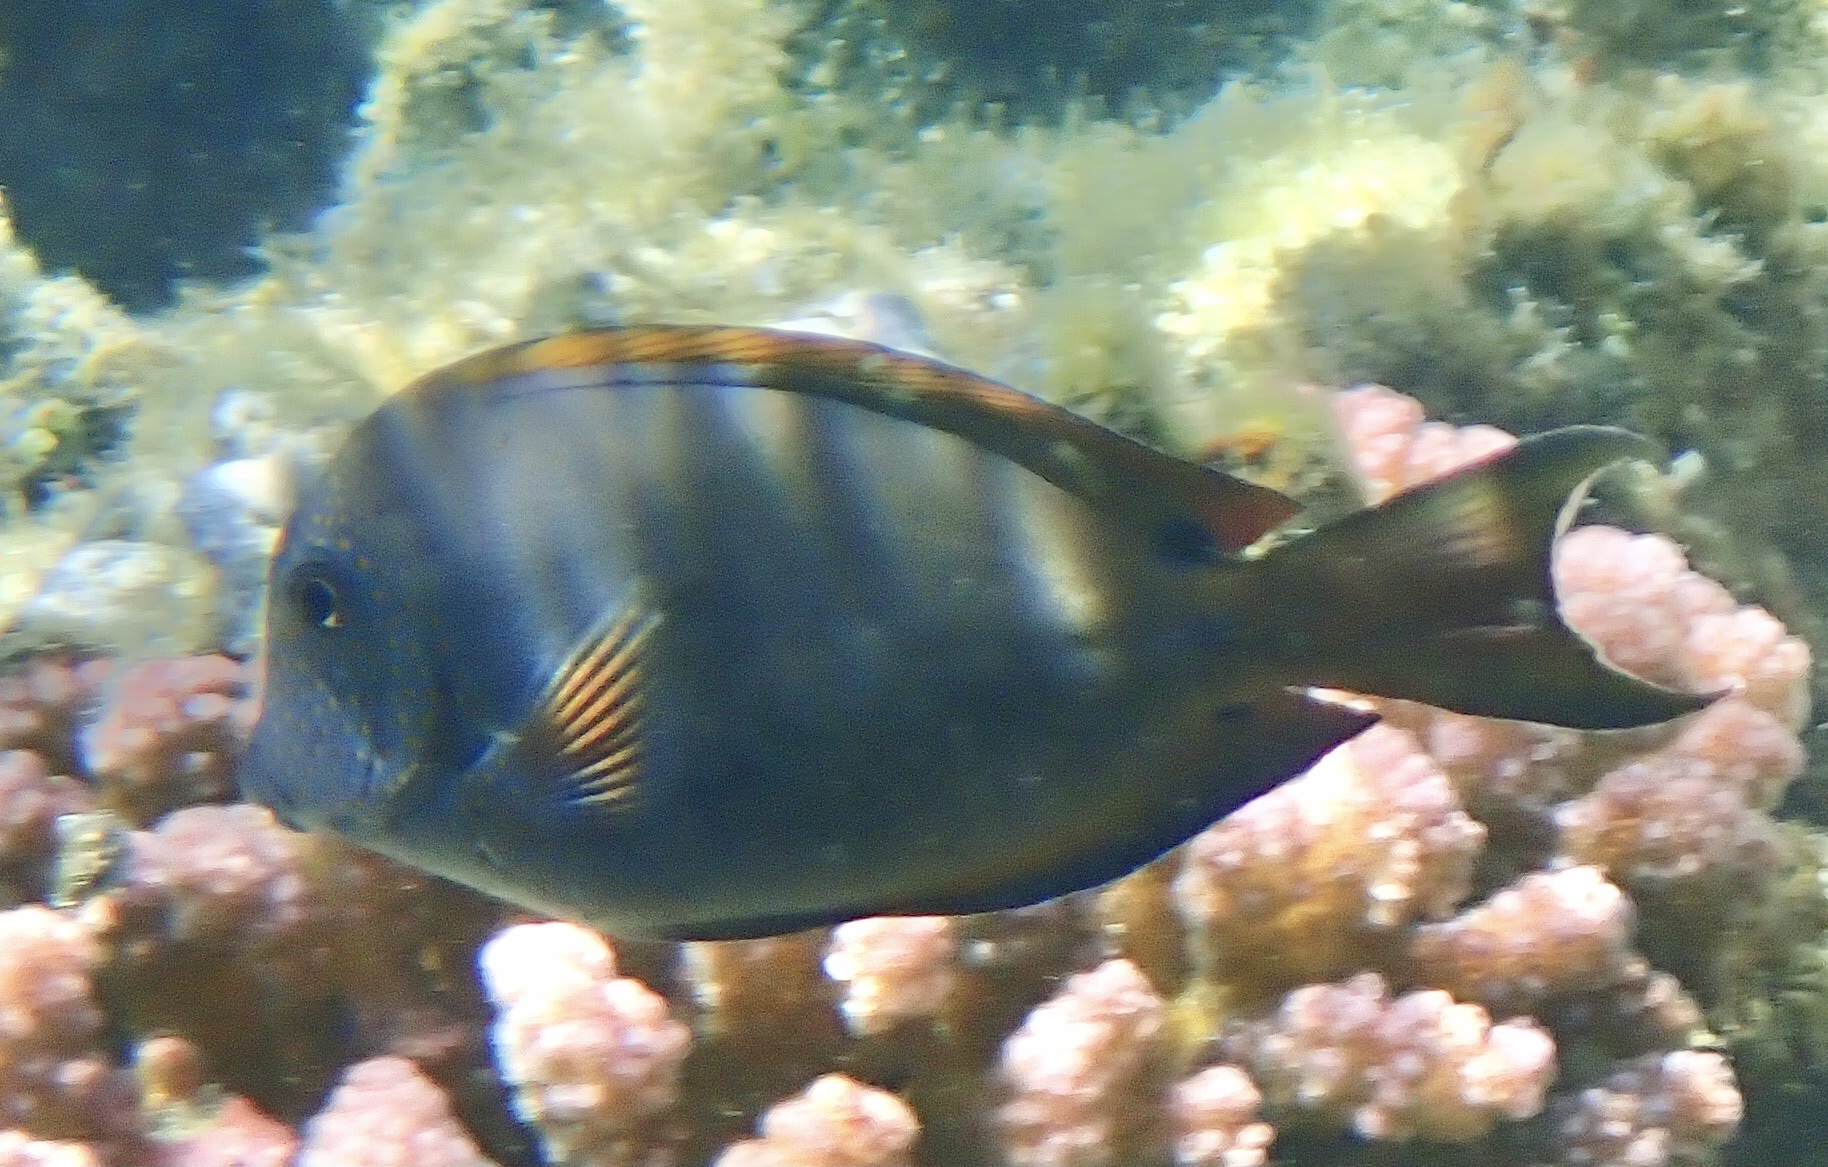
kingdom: Animalia
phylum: Chordata
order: Perciformes
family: Acanthuridae
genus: Acanthurus
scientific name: Acanthurus nigrofuscus
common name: Blackspot surgeonfish
